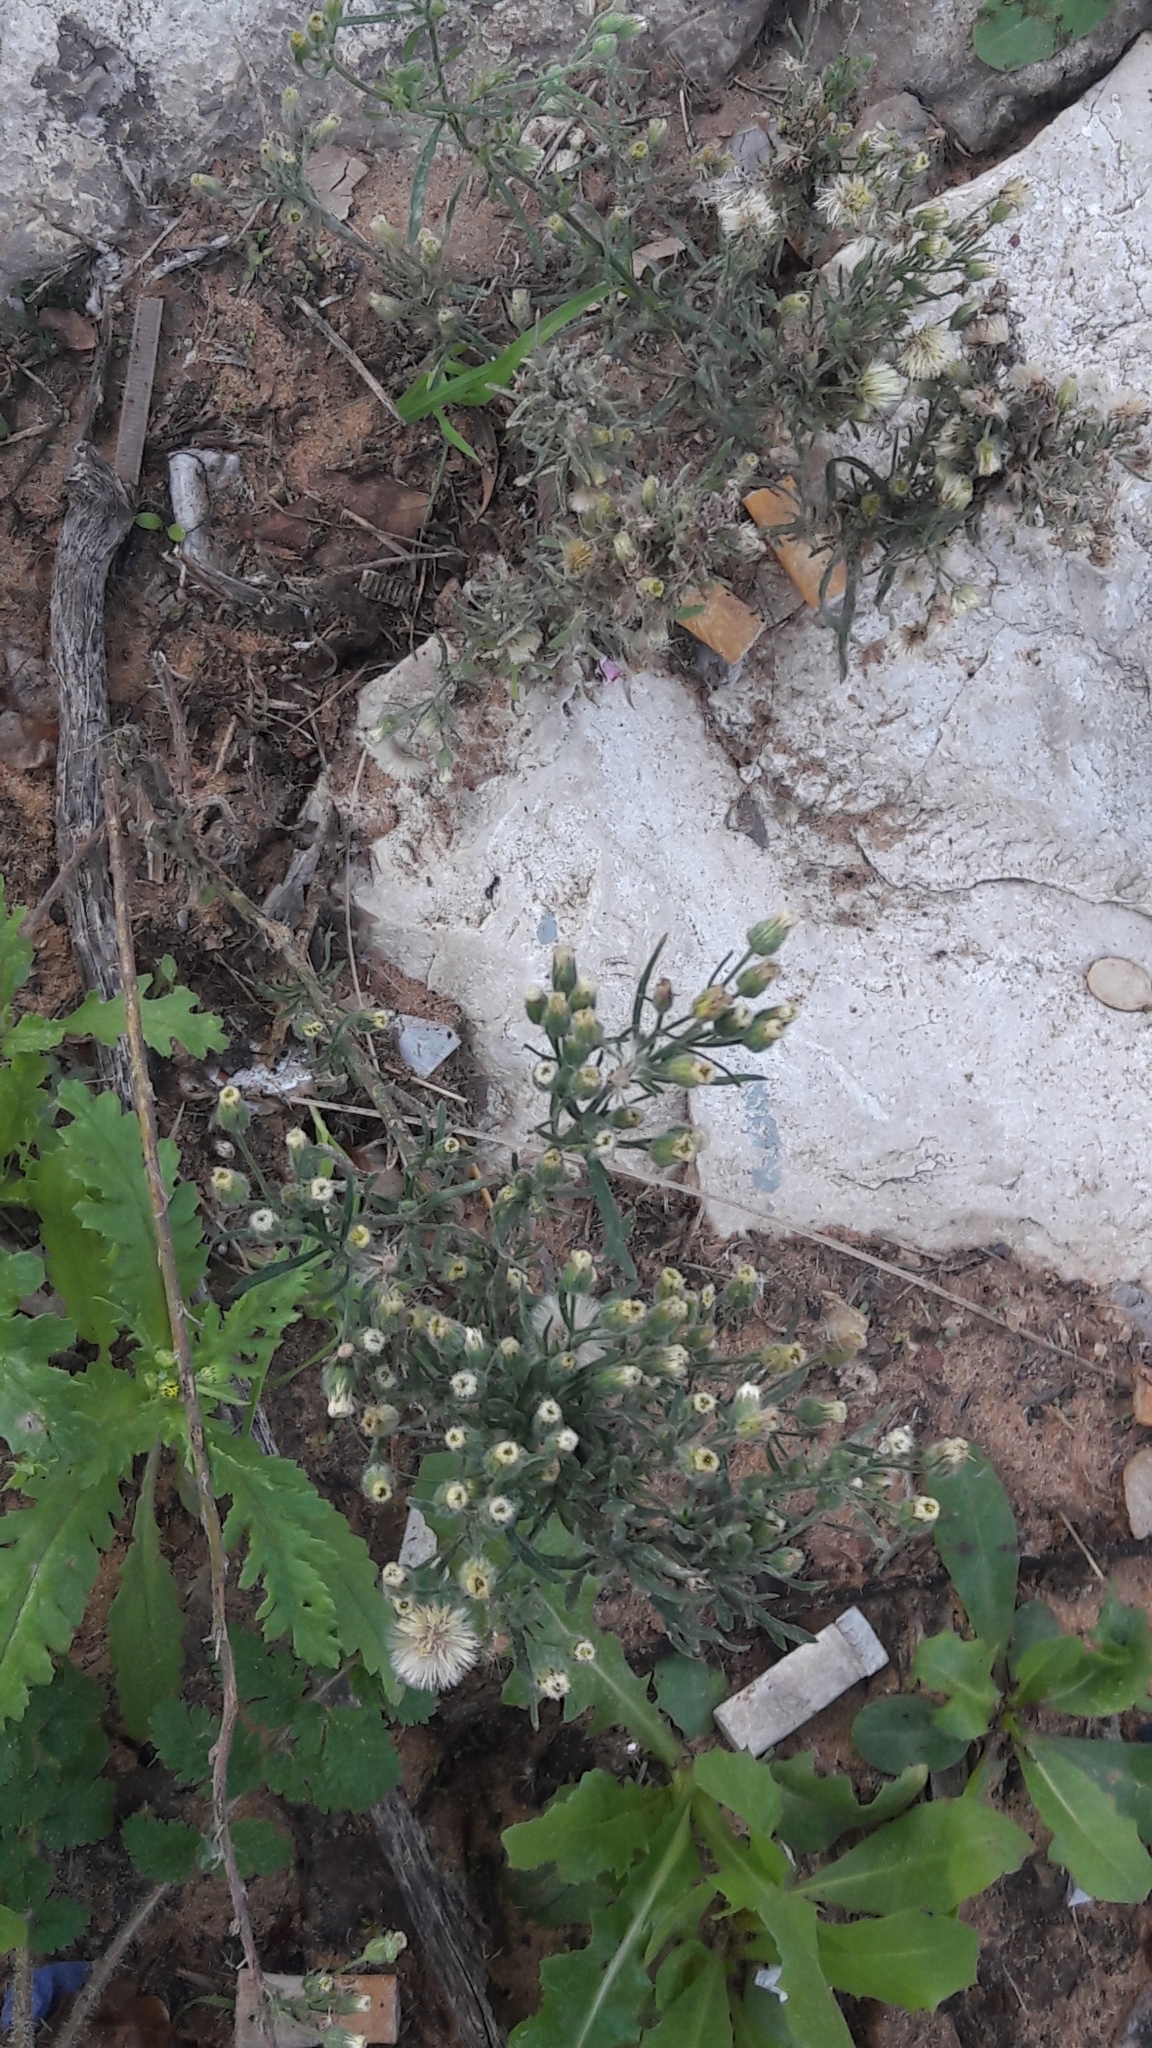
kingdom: Plantae
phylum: Tracheophyta
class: Magnoliopsida
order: Asterales
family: Asteraceae
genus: Erigeron
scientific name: Erigeron bonariensis
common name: Argentine fleabane
